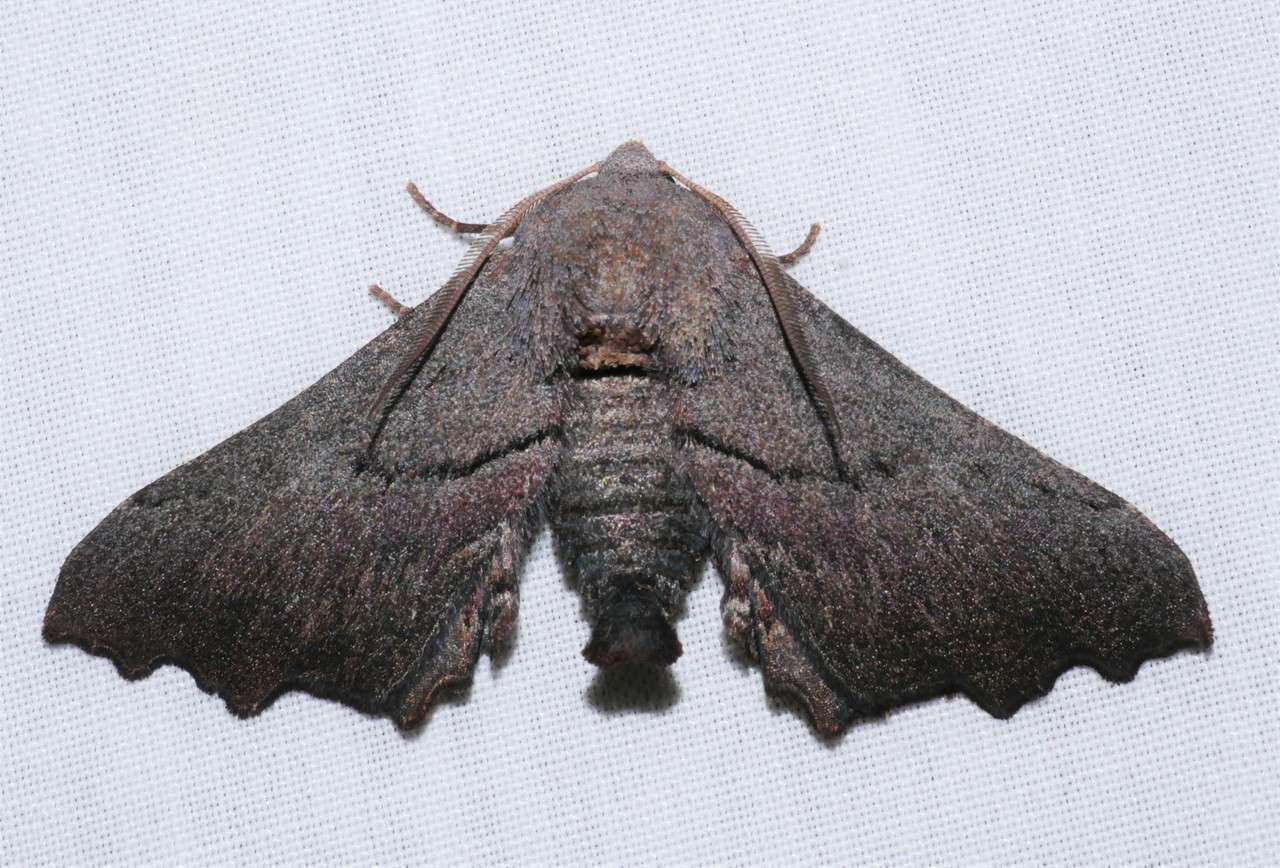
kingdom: Animalia
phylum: Arthropoda
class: Insecta
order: Lepidoptera
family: Geometridae
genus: Amphiclasta
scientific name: Amphiclasta lygaea
